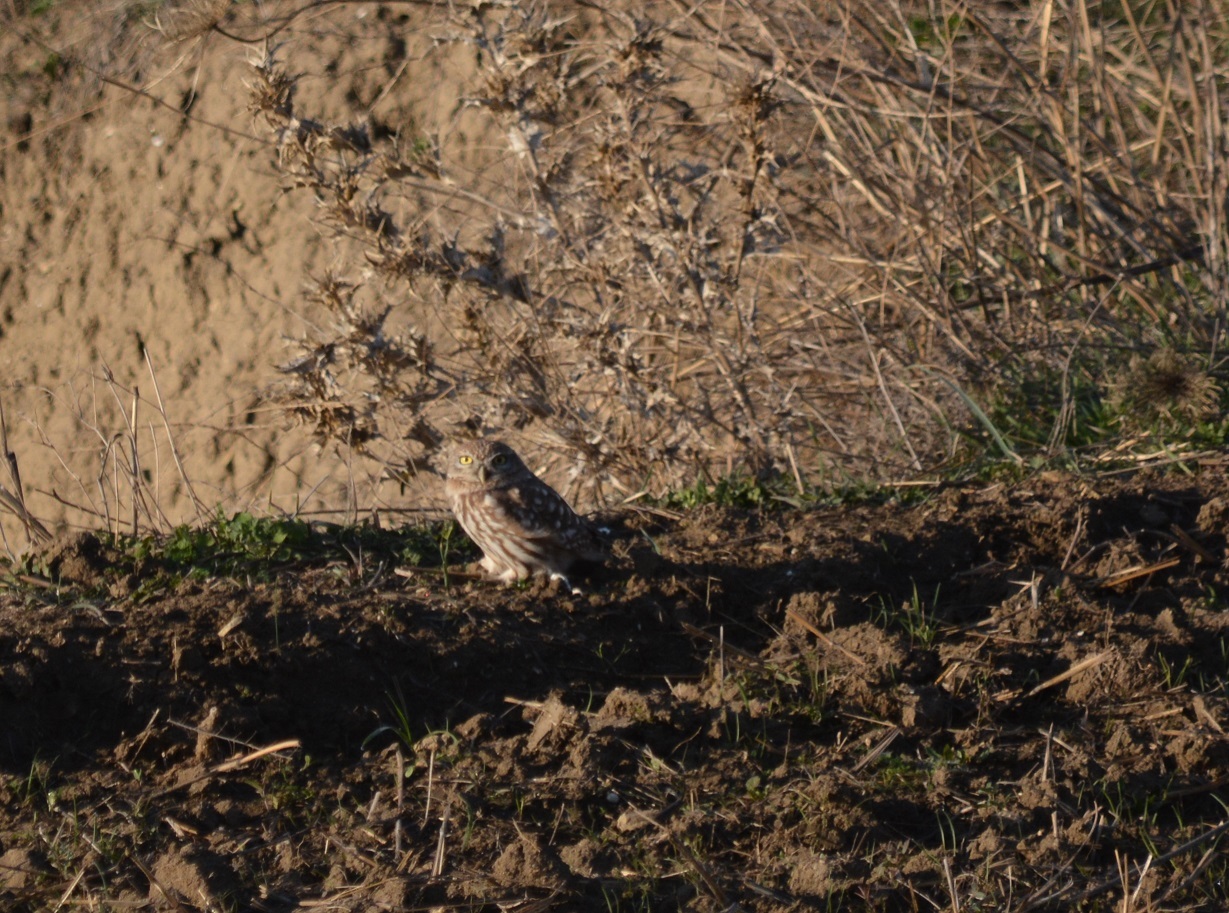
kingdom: Animalia
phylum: Chordata
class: Aves
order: Strigiformes
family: Strigidae
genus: Athene
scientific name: Athene noctua
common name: Little owl
